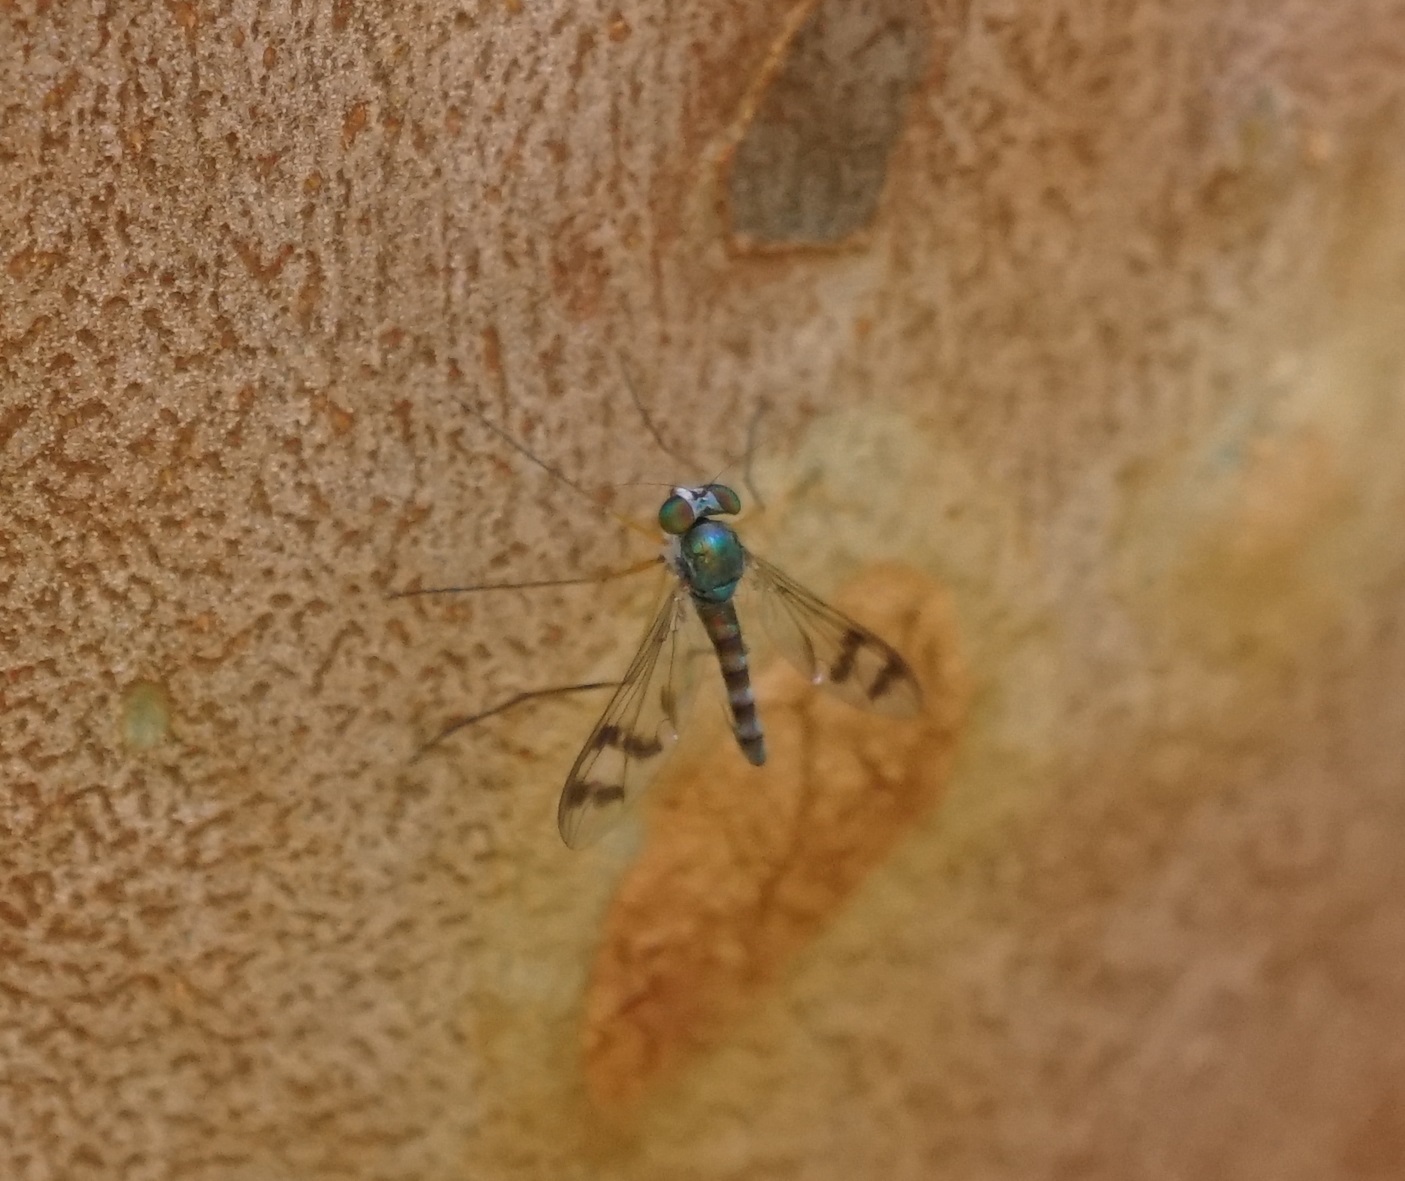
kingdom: Animalia
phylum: Arthropoda
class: Insecta
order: Diptera
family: Dolichopodidae
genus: Heteropsilopus
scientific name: Heteropsilopus squamifer
